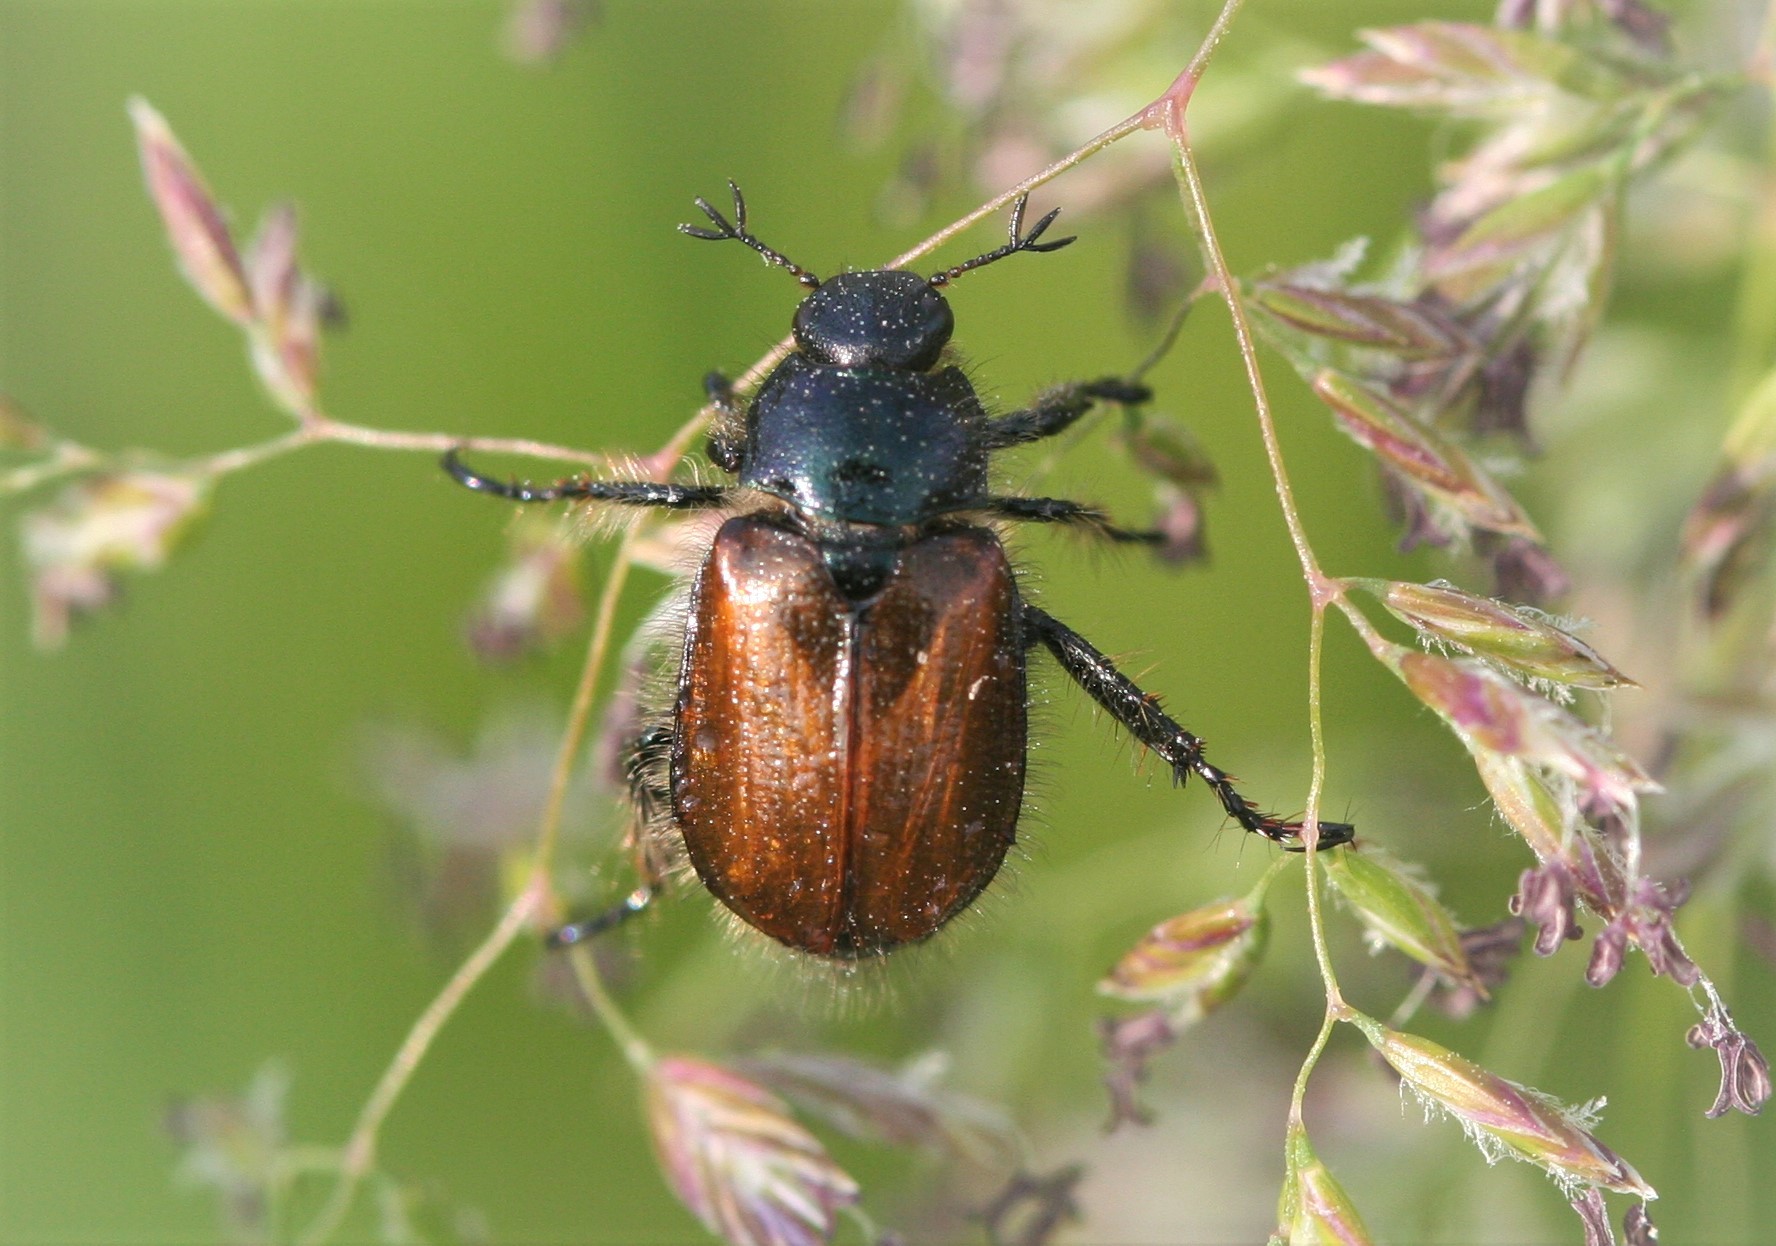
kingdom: Animalia
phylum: Arthropoda
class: Insecta
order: Coleoptera
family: Scarabaeidae
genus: Phyllopertha
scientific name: Phyllopertha horticola
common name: Garden chafer
